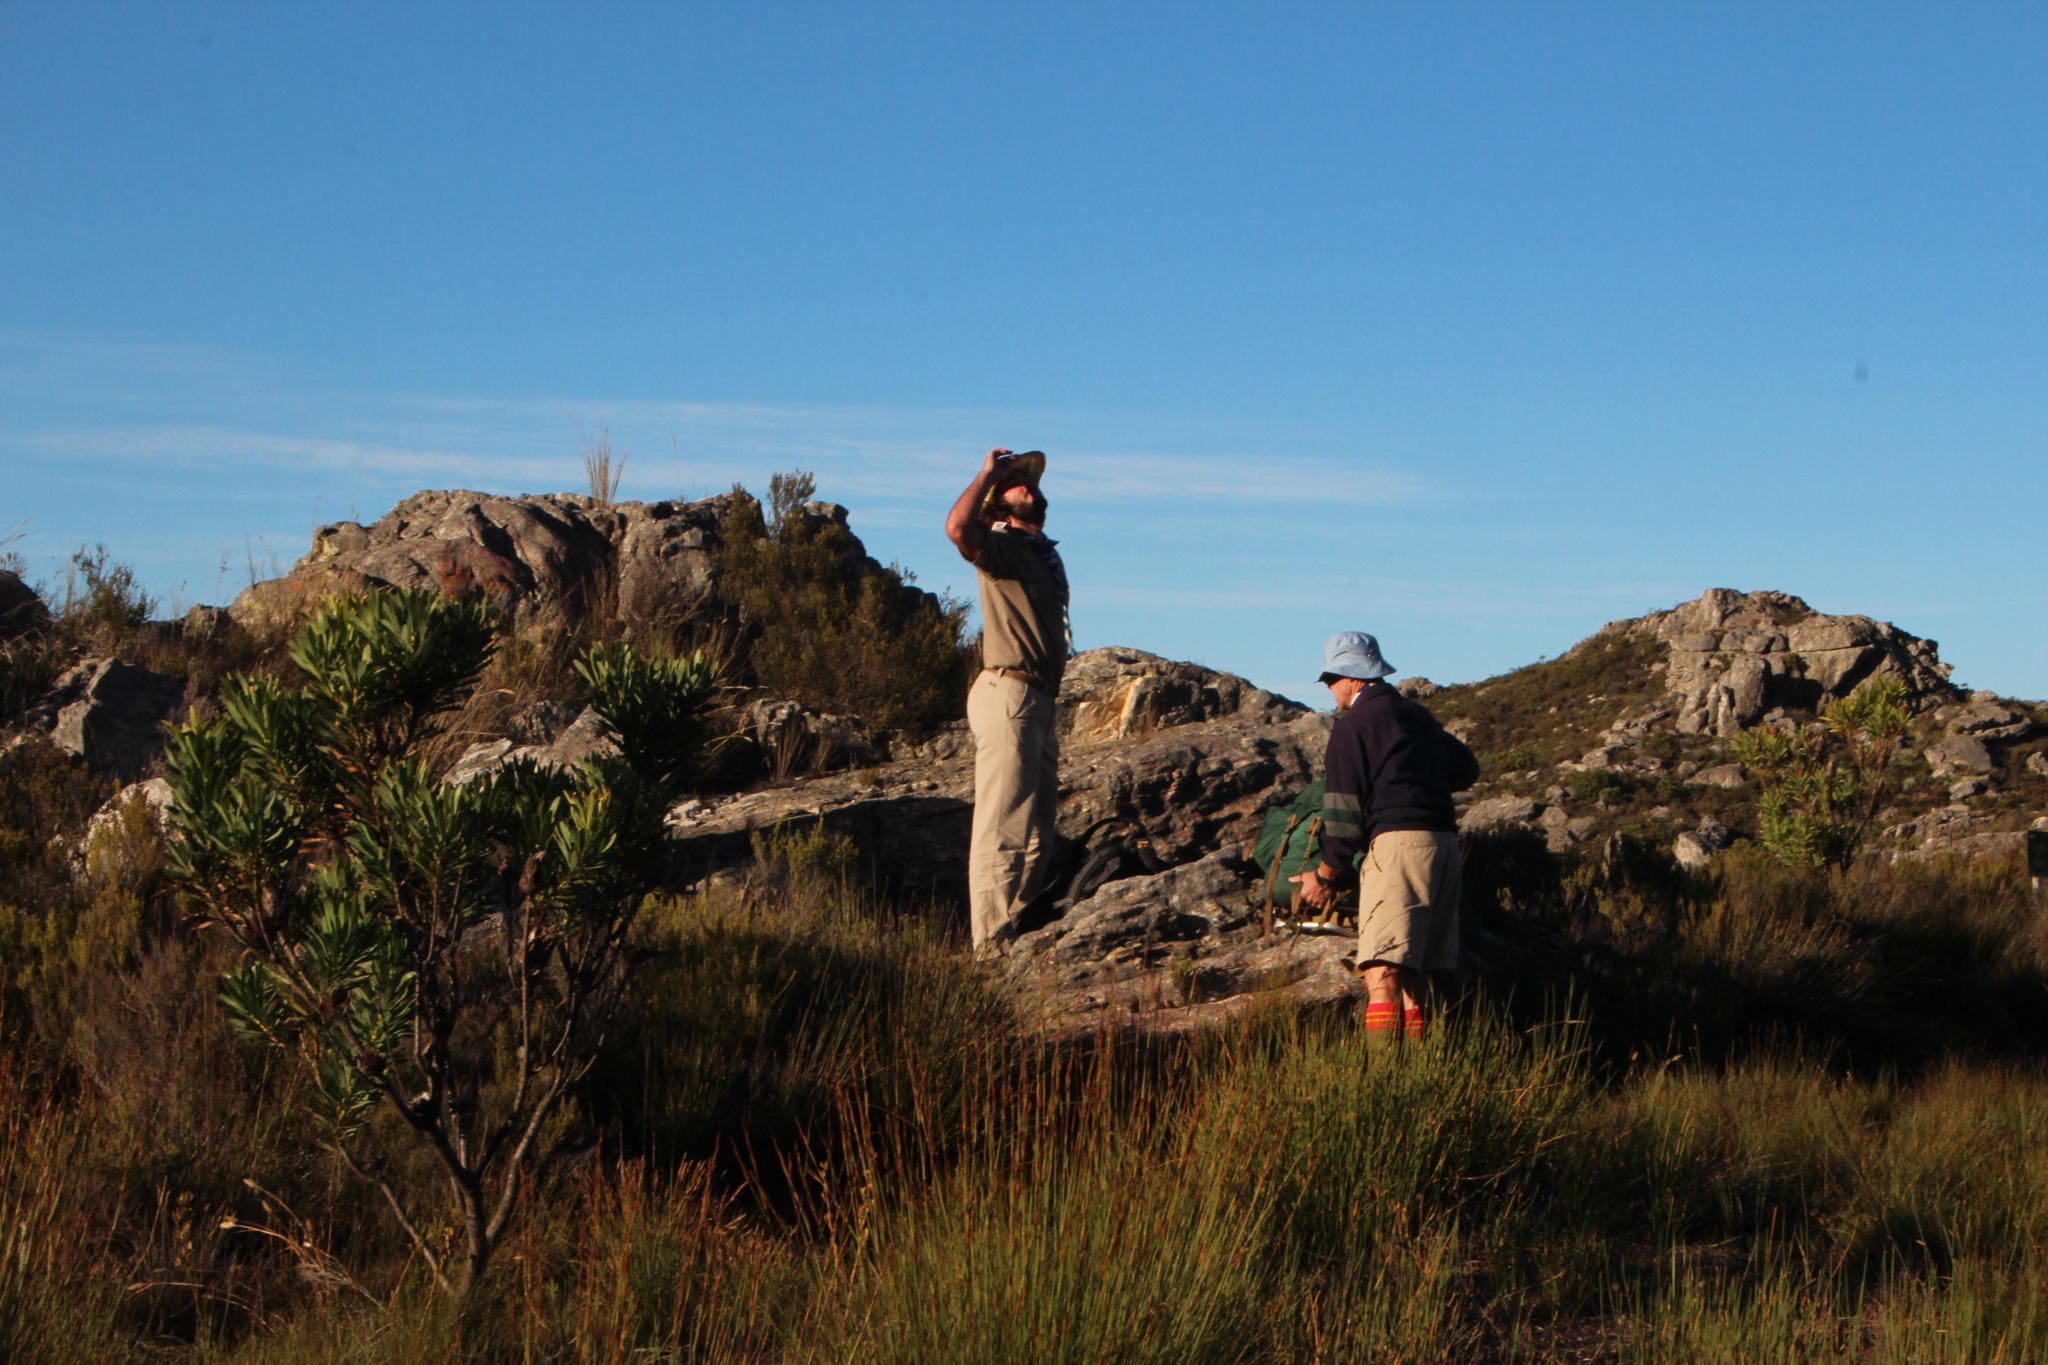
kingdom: Plantae
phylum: Tracheophyta
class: Magnoliopsida
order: Proteales
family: Proteaceae
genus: Protea
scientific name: Protea repens
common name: Sugarbush
